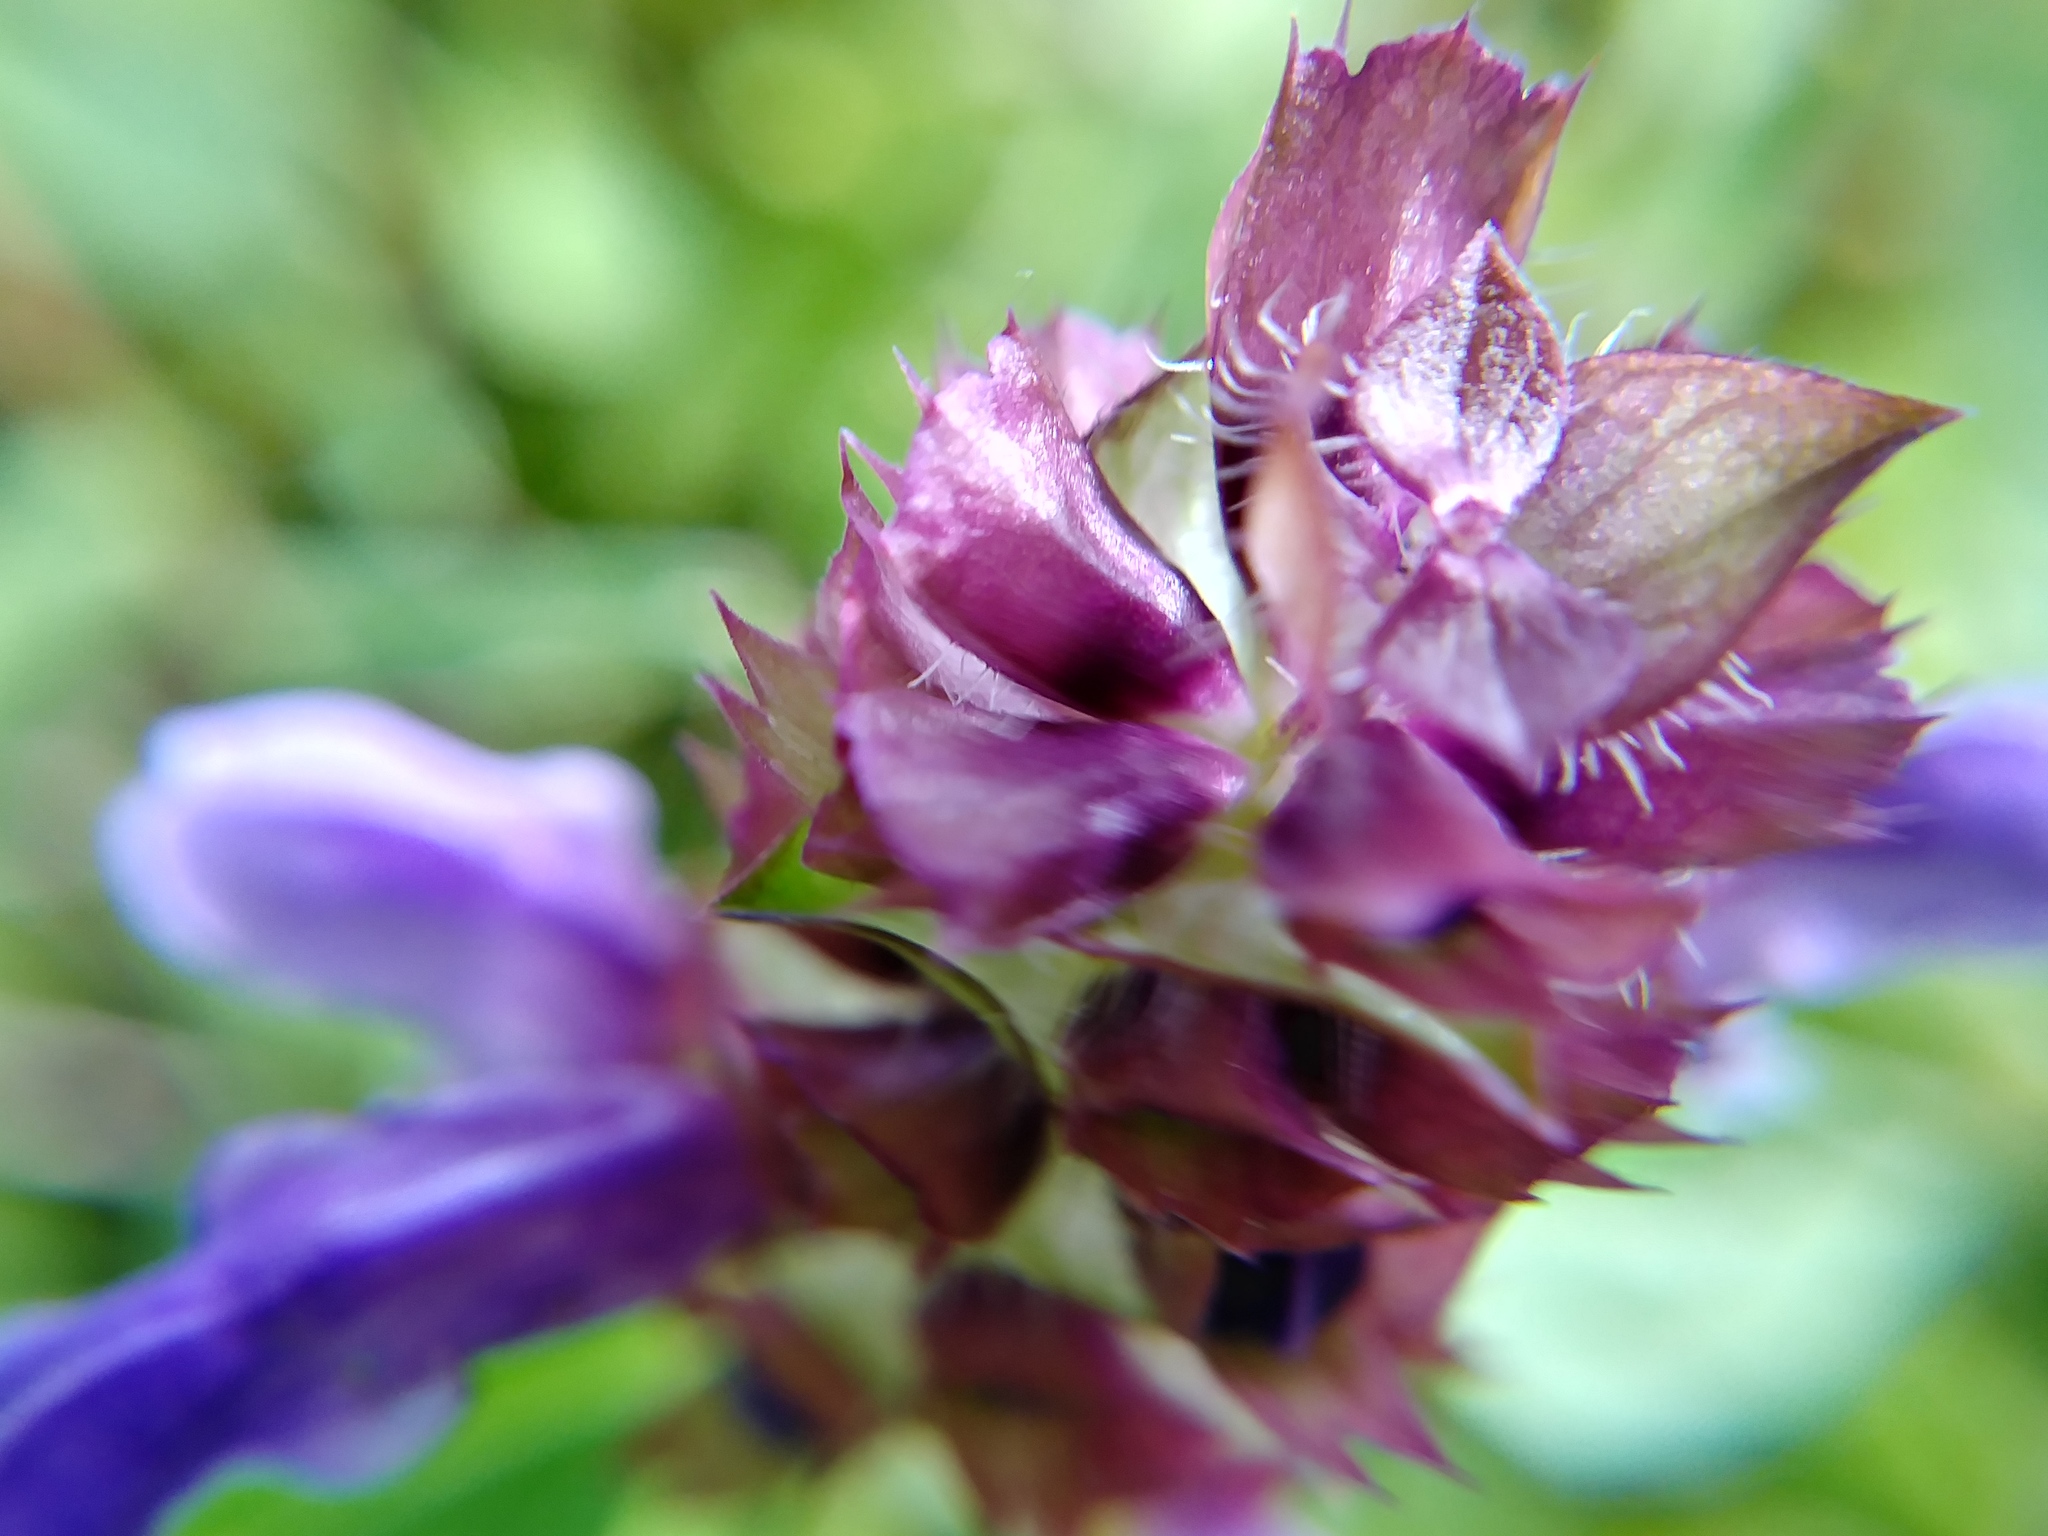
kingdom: Plantae
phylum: Tracheophyta
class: Magnoliopsida
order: Lamiales
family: Lamiaceae
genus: Prunella
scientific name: Prunella vulgaris
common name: Heal-all
